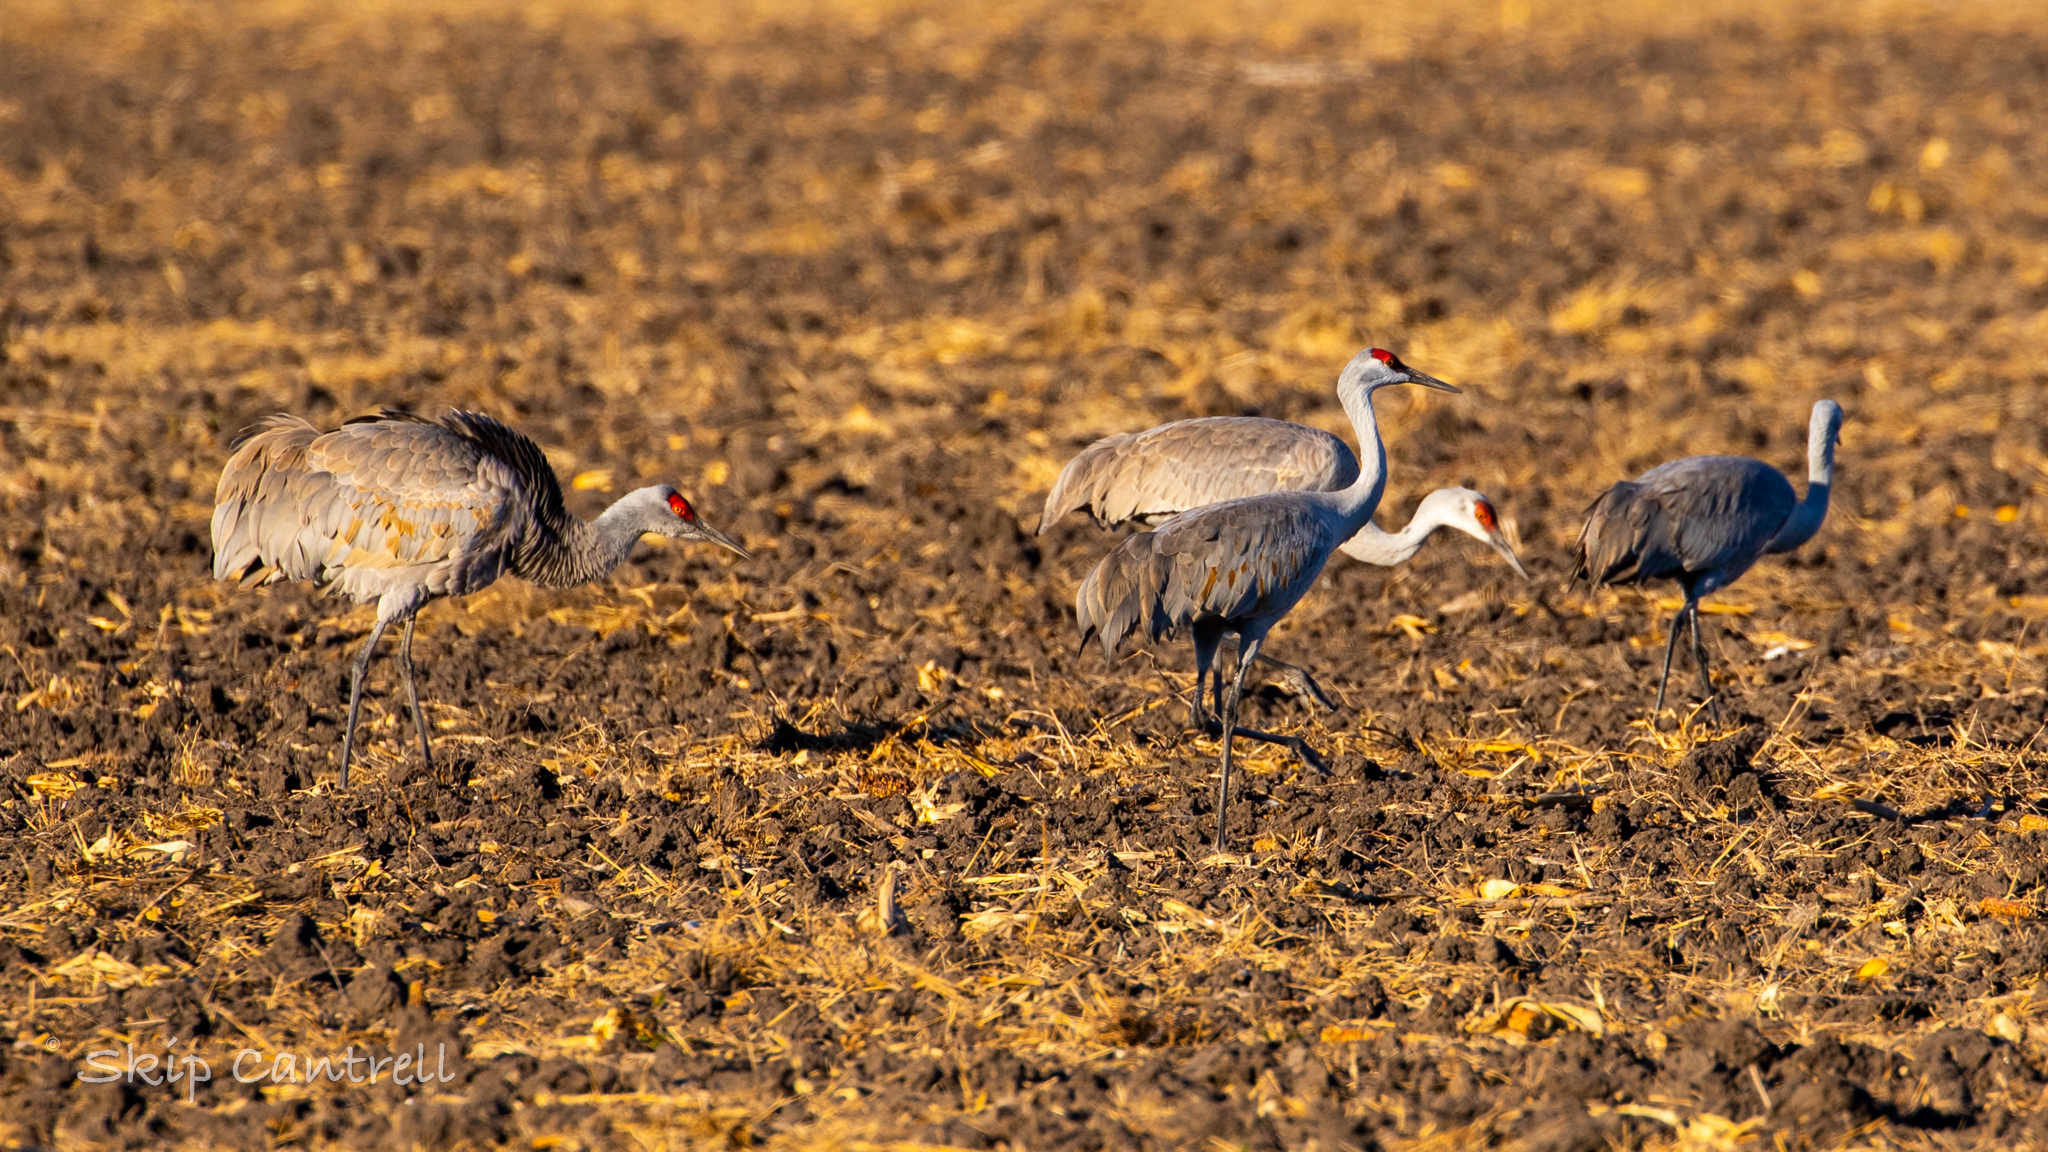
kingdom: Animalia
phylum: Chordata
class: Aves
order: Gruiformes
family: Gruidae
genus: Grus
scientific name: Grus canadensis
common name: Sandhill crane
